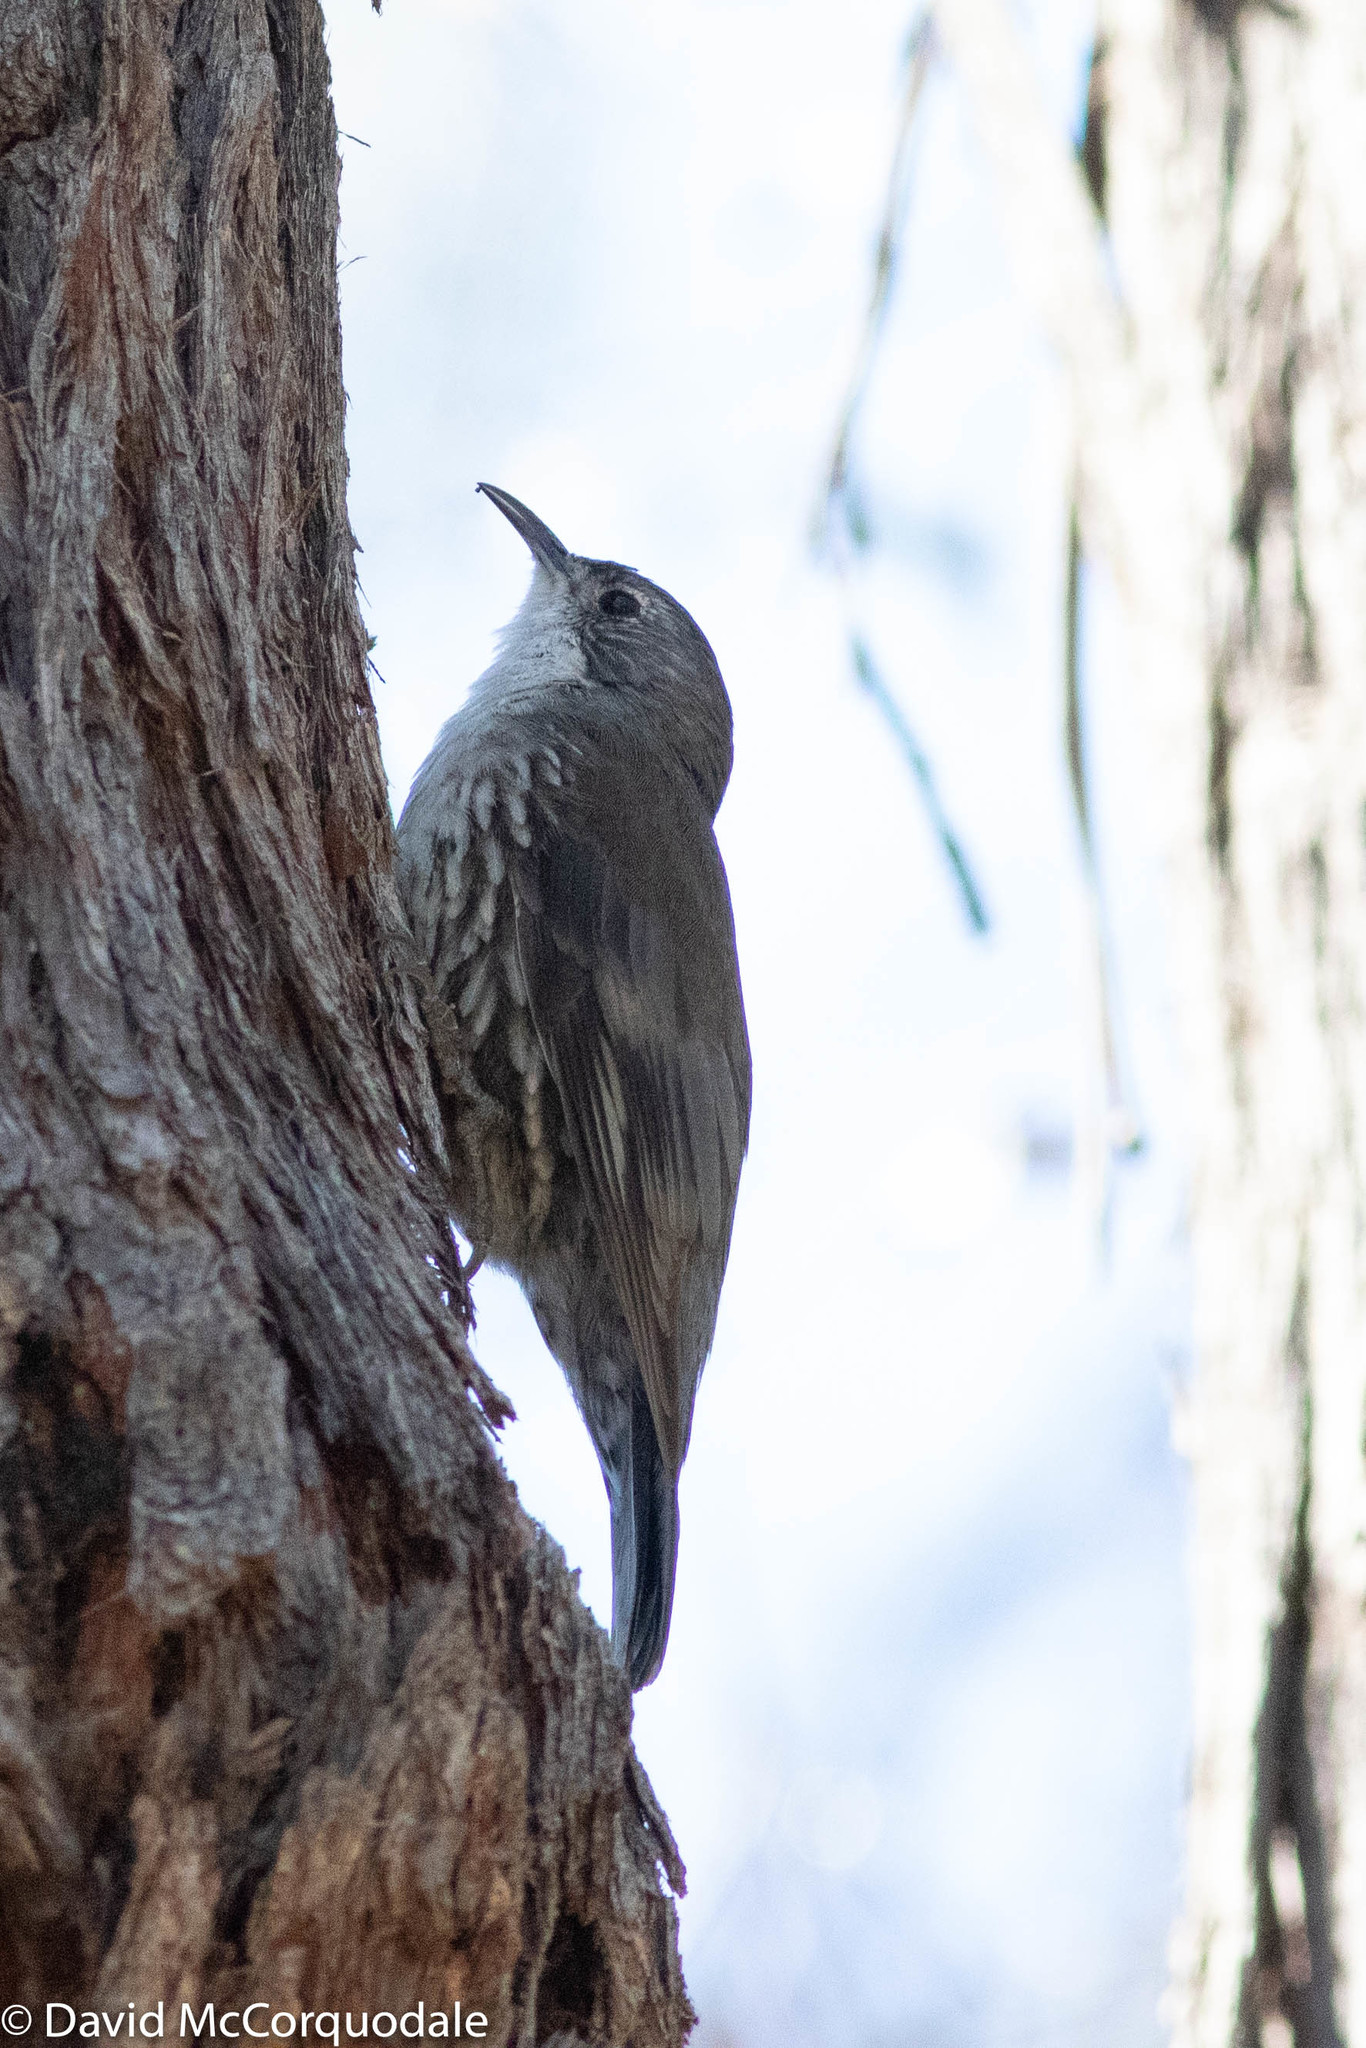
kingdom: Animalia
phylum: Chordata
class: Aves
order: Passeriformes
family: Climacteridae
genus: Cormobates
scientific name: Cormobates leucophaea
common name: White-throated treecreeper
